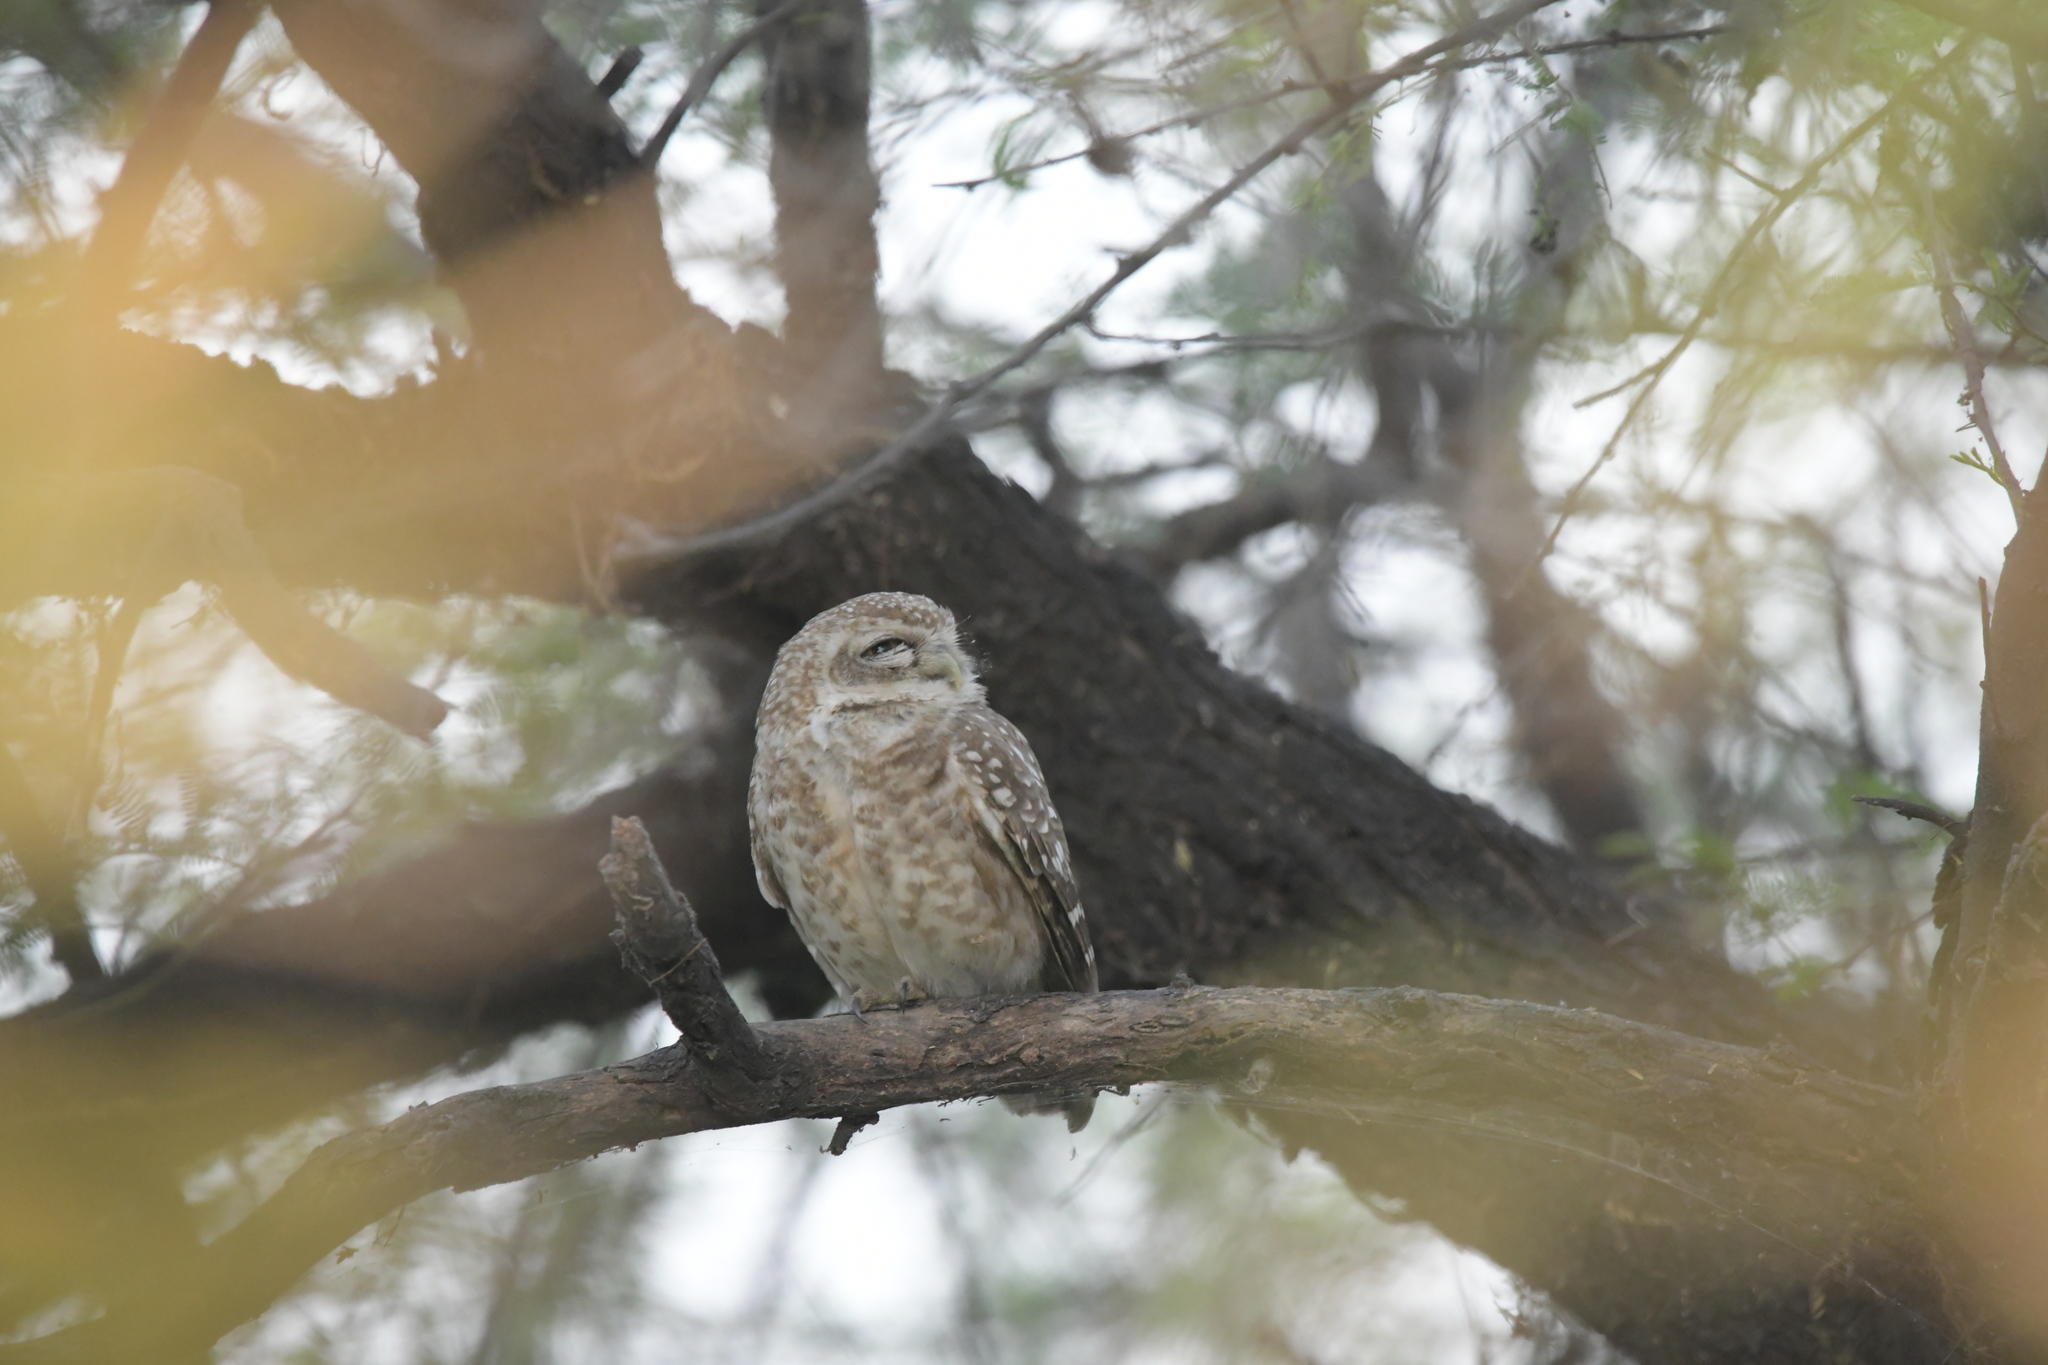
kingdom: Animalia
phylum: Chordata
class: Aves
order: Strigiformes
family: Strigidae
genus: Athene
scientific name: Athene brama
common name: Spotted owlet
